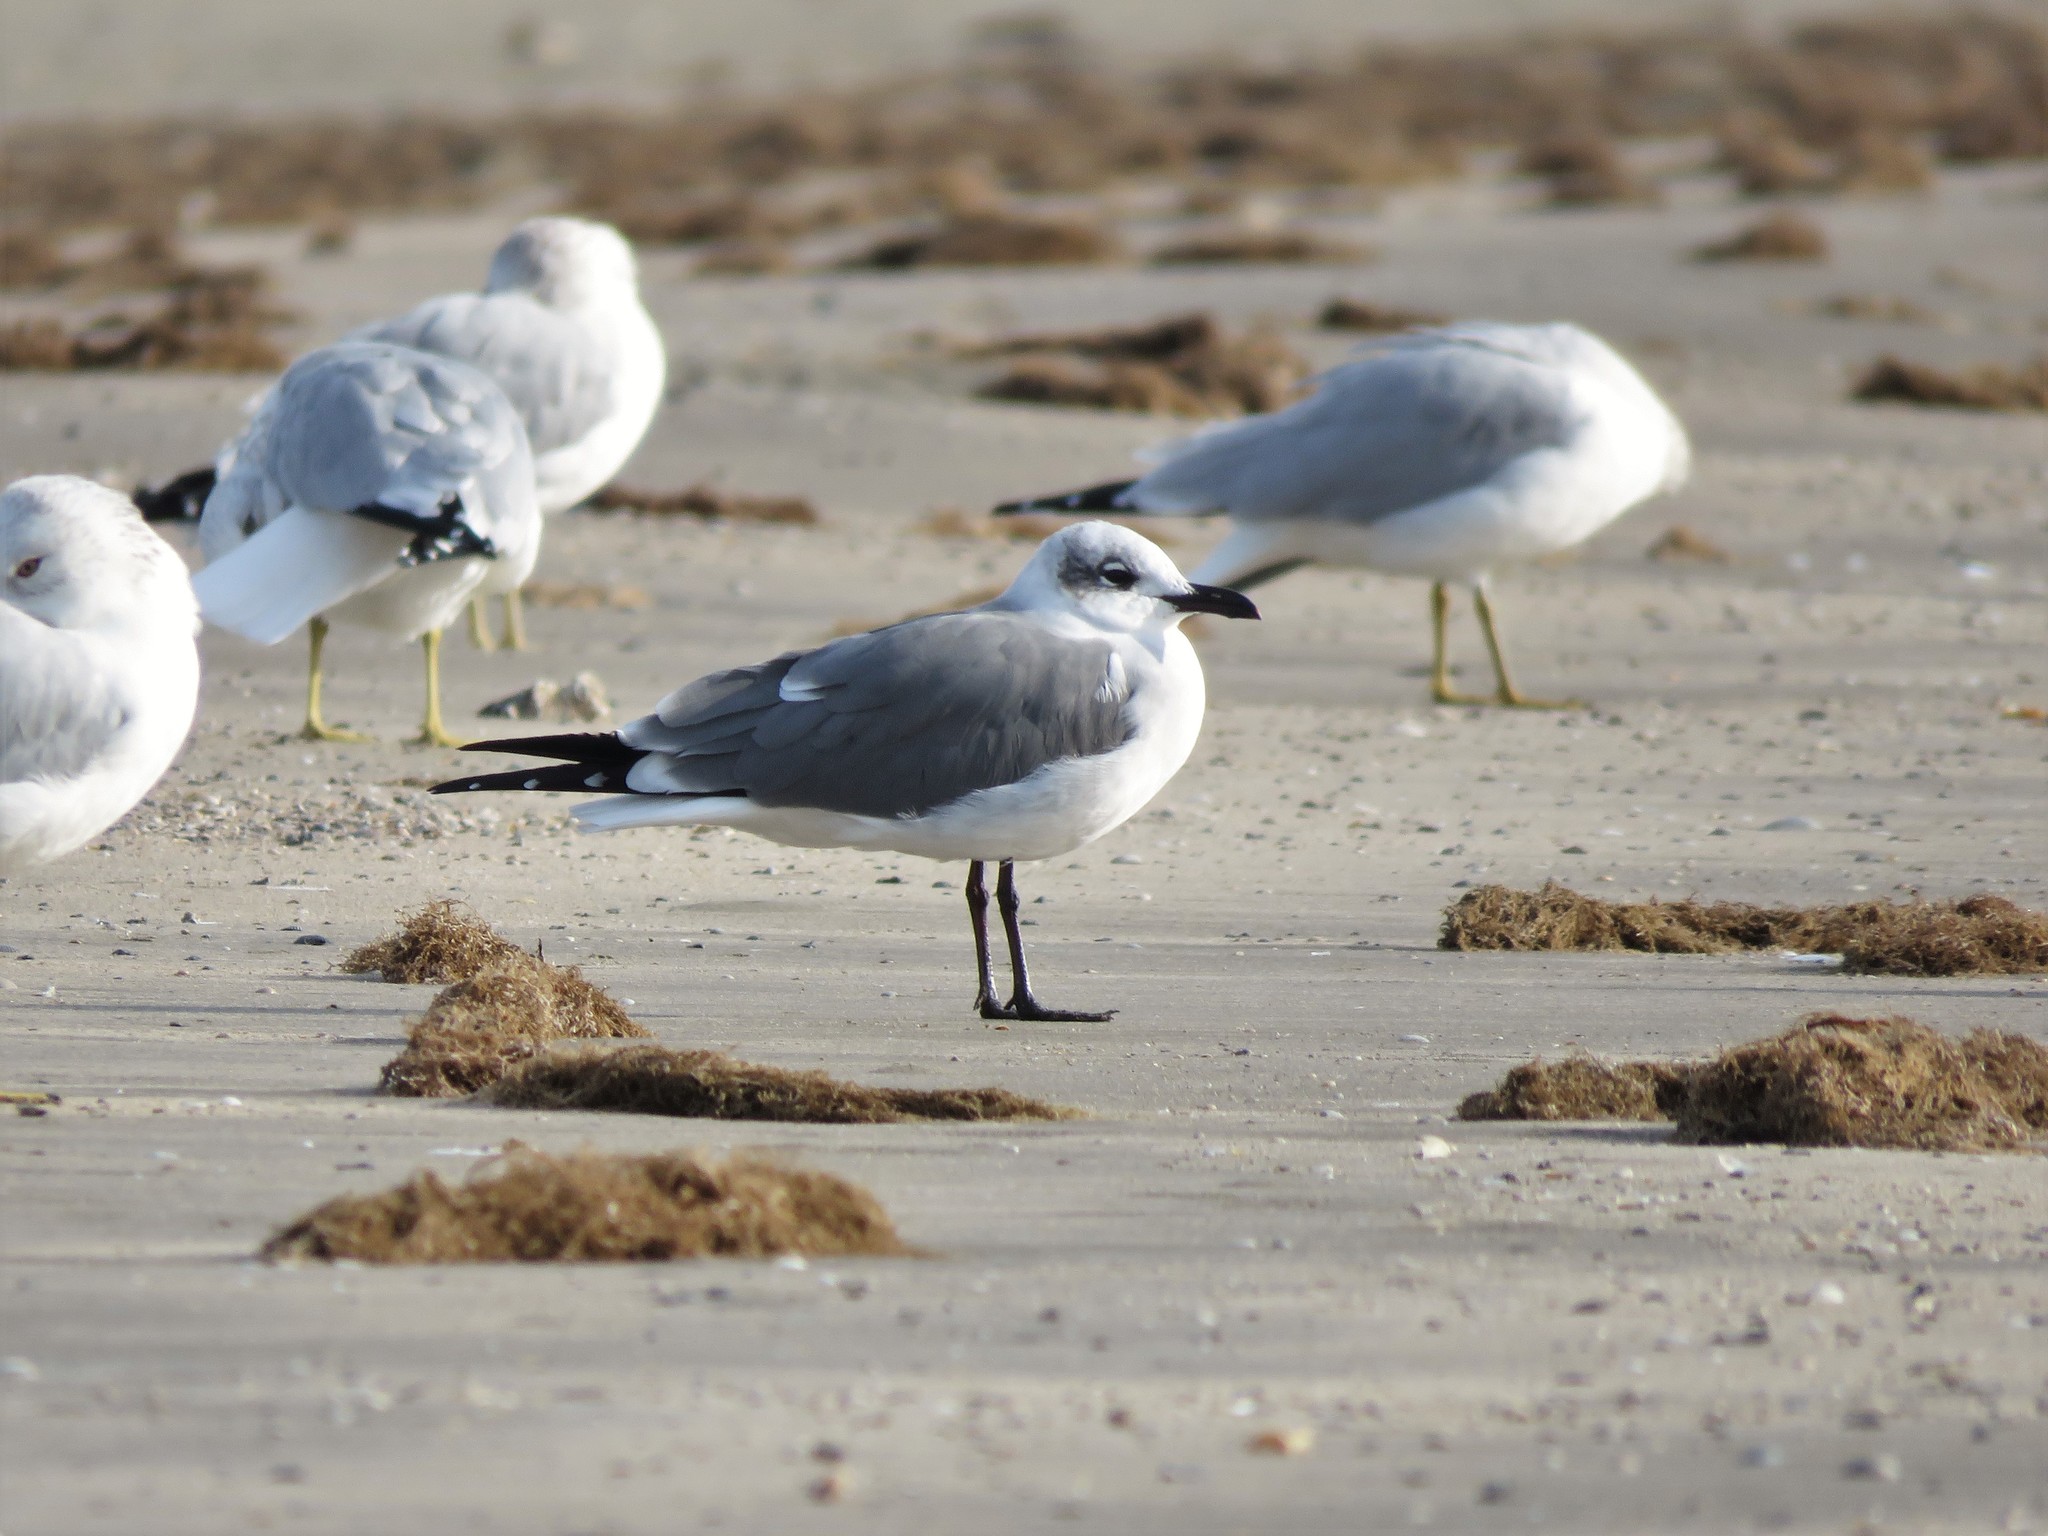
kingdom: Animalia
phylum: Chordata
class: Aves
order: Charadriiformes
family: Laridae
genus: Leucophaeus
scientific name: Leucophaeus atricilla
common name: Laughing gull
